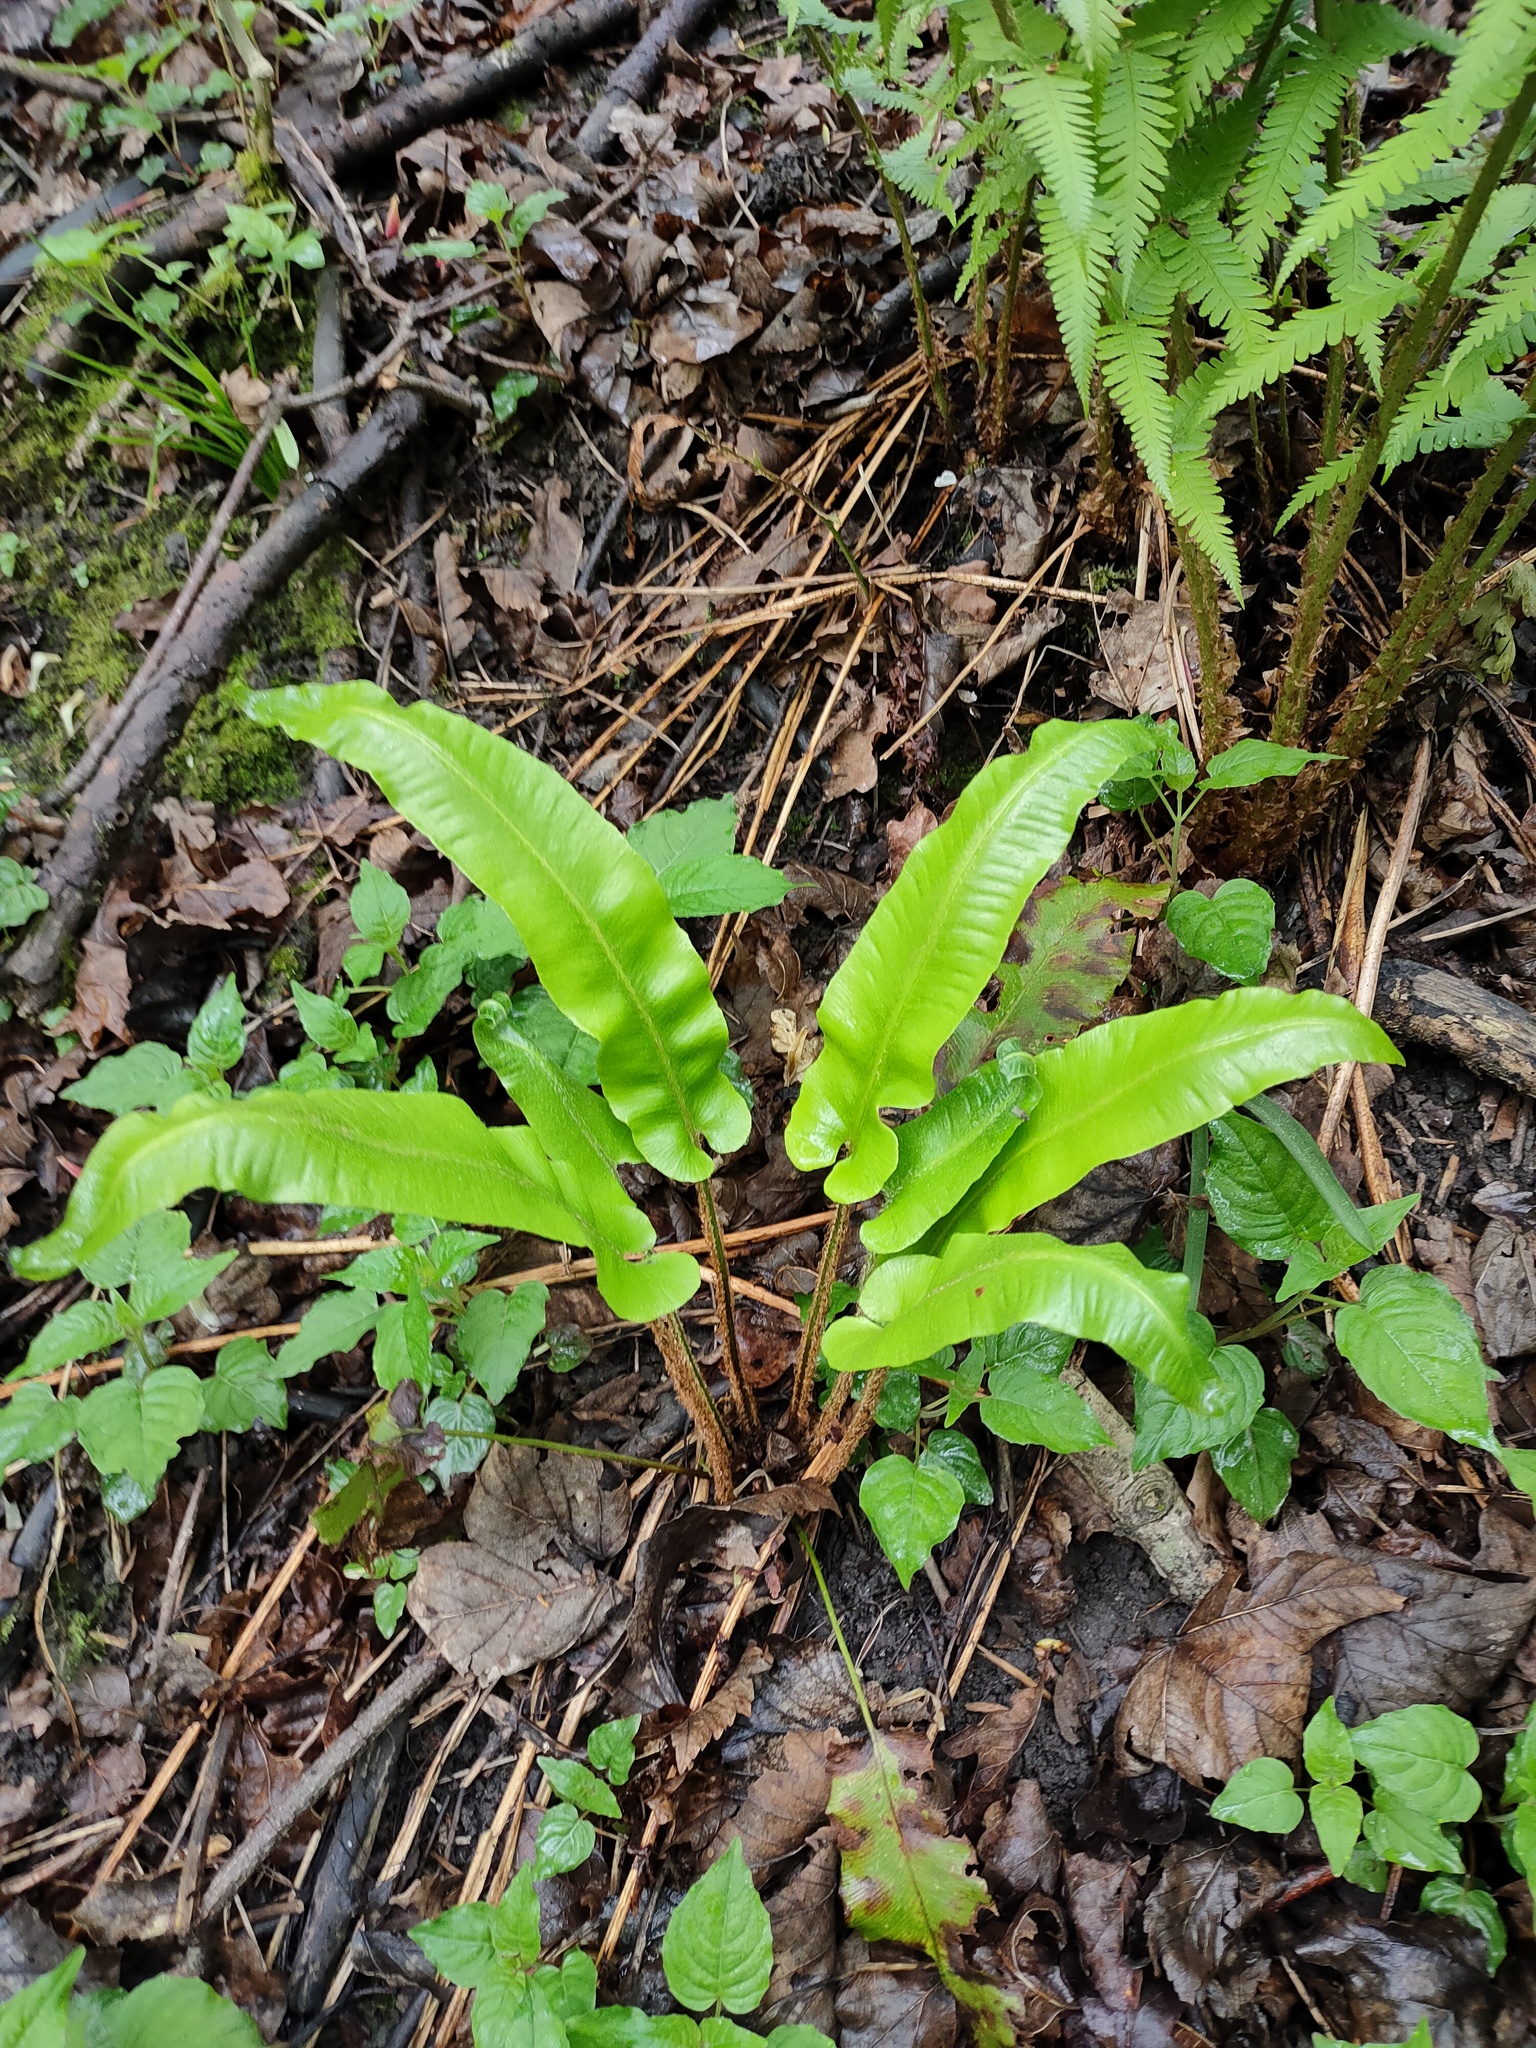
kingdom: Plantae
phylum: Tracheophyta
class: Polypodiopsida
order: Polypodiales
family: Aspleniaceae
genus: Asplenium
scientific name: Asplenium scolopendrium
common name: Hart's-tongue fern
